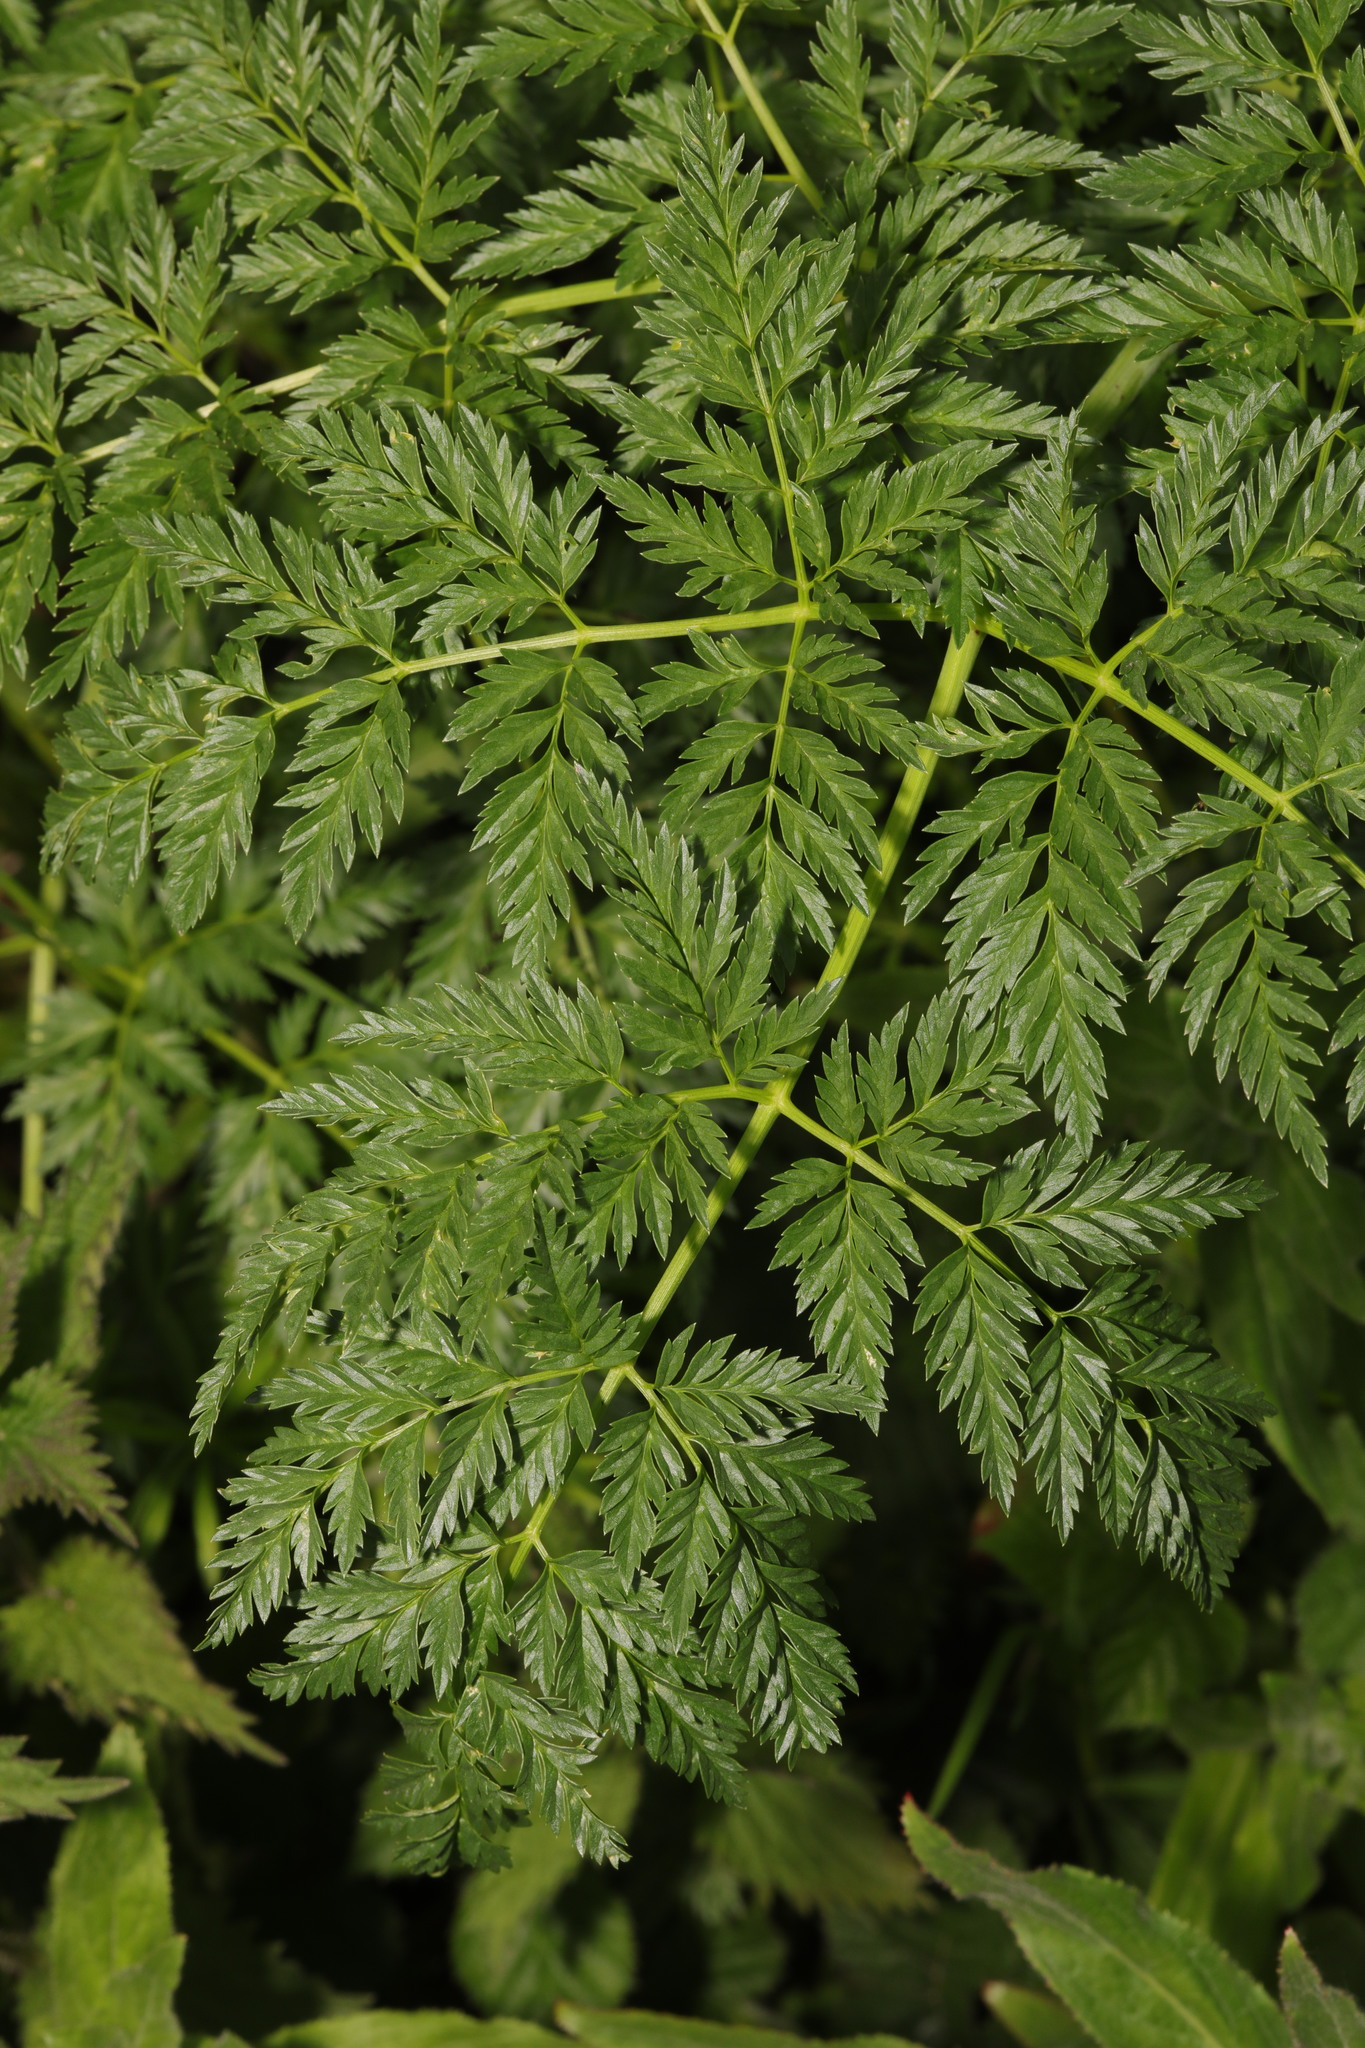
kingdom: Plantae
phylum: Tracheophyta
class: Magnoliopsida
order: Apiales
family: Apiaceae
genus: Conium
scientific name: Conium maculatum
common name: Hemlock
